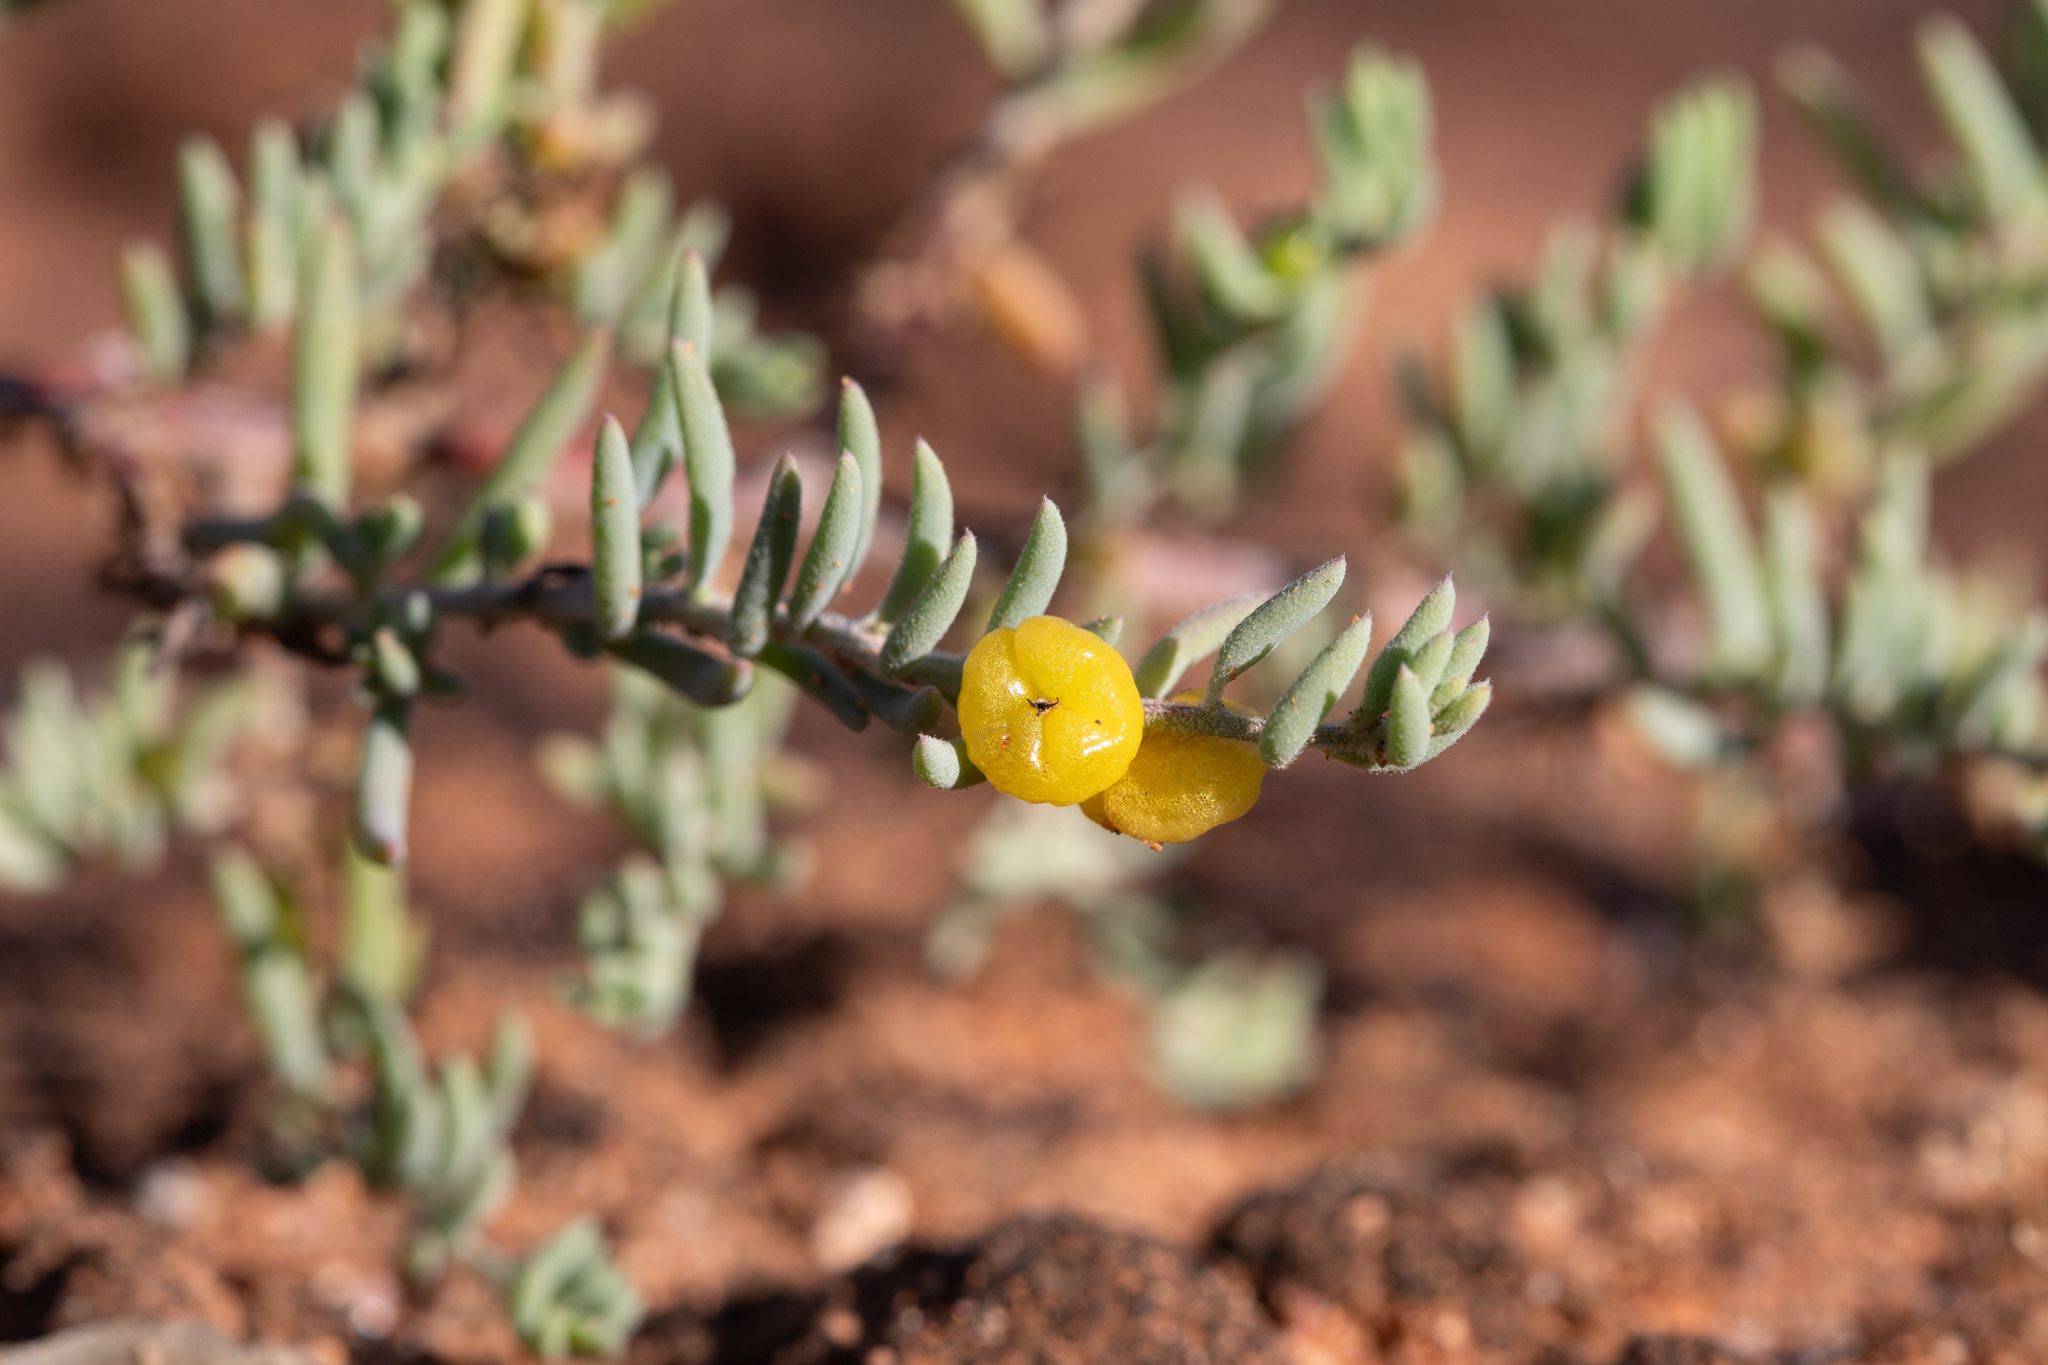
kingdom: Plantae
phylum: Tracheophyta
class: Magnoliopsida
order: Caryophyllales
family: Amaranthaceae
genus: Enchylaena
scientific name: Enchylaena tomentosa
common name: Ruby saltbush
